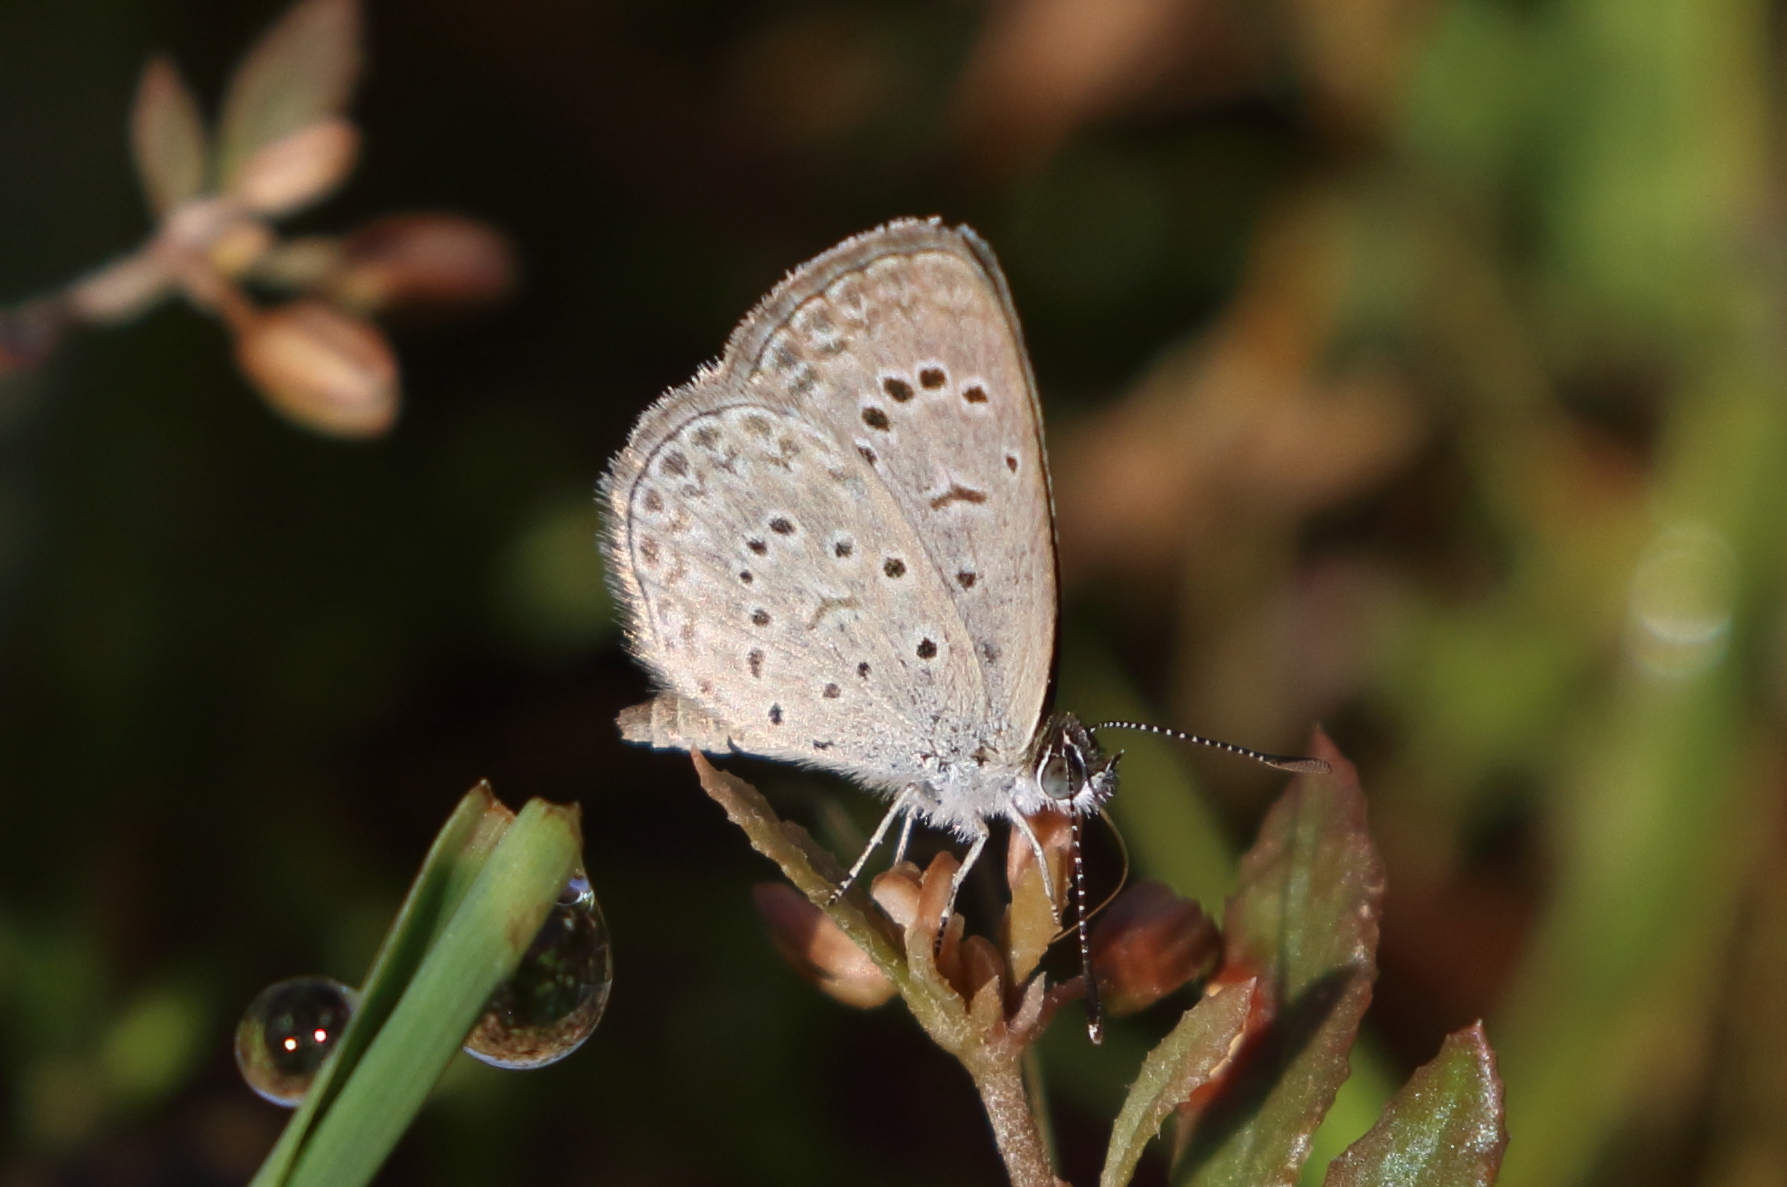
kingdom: Animalia
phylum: Arthropoda
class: Insecta
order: Lepidoptera
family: Lycaenidae
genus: Zizeeria
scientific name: Zizeeria karsandra
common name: Dark grass blue
